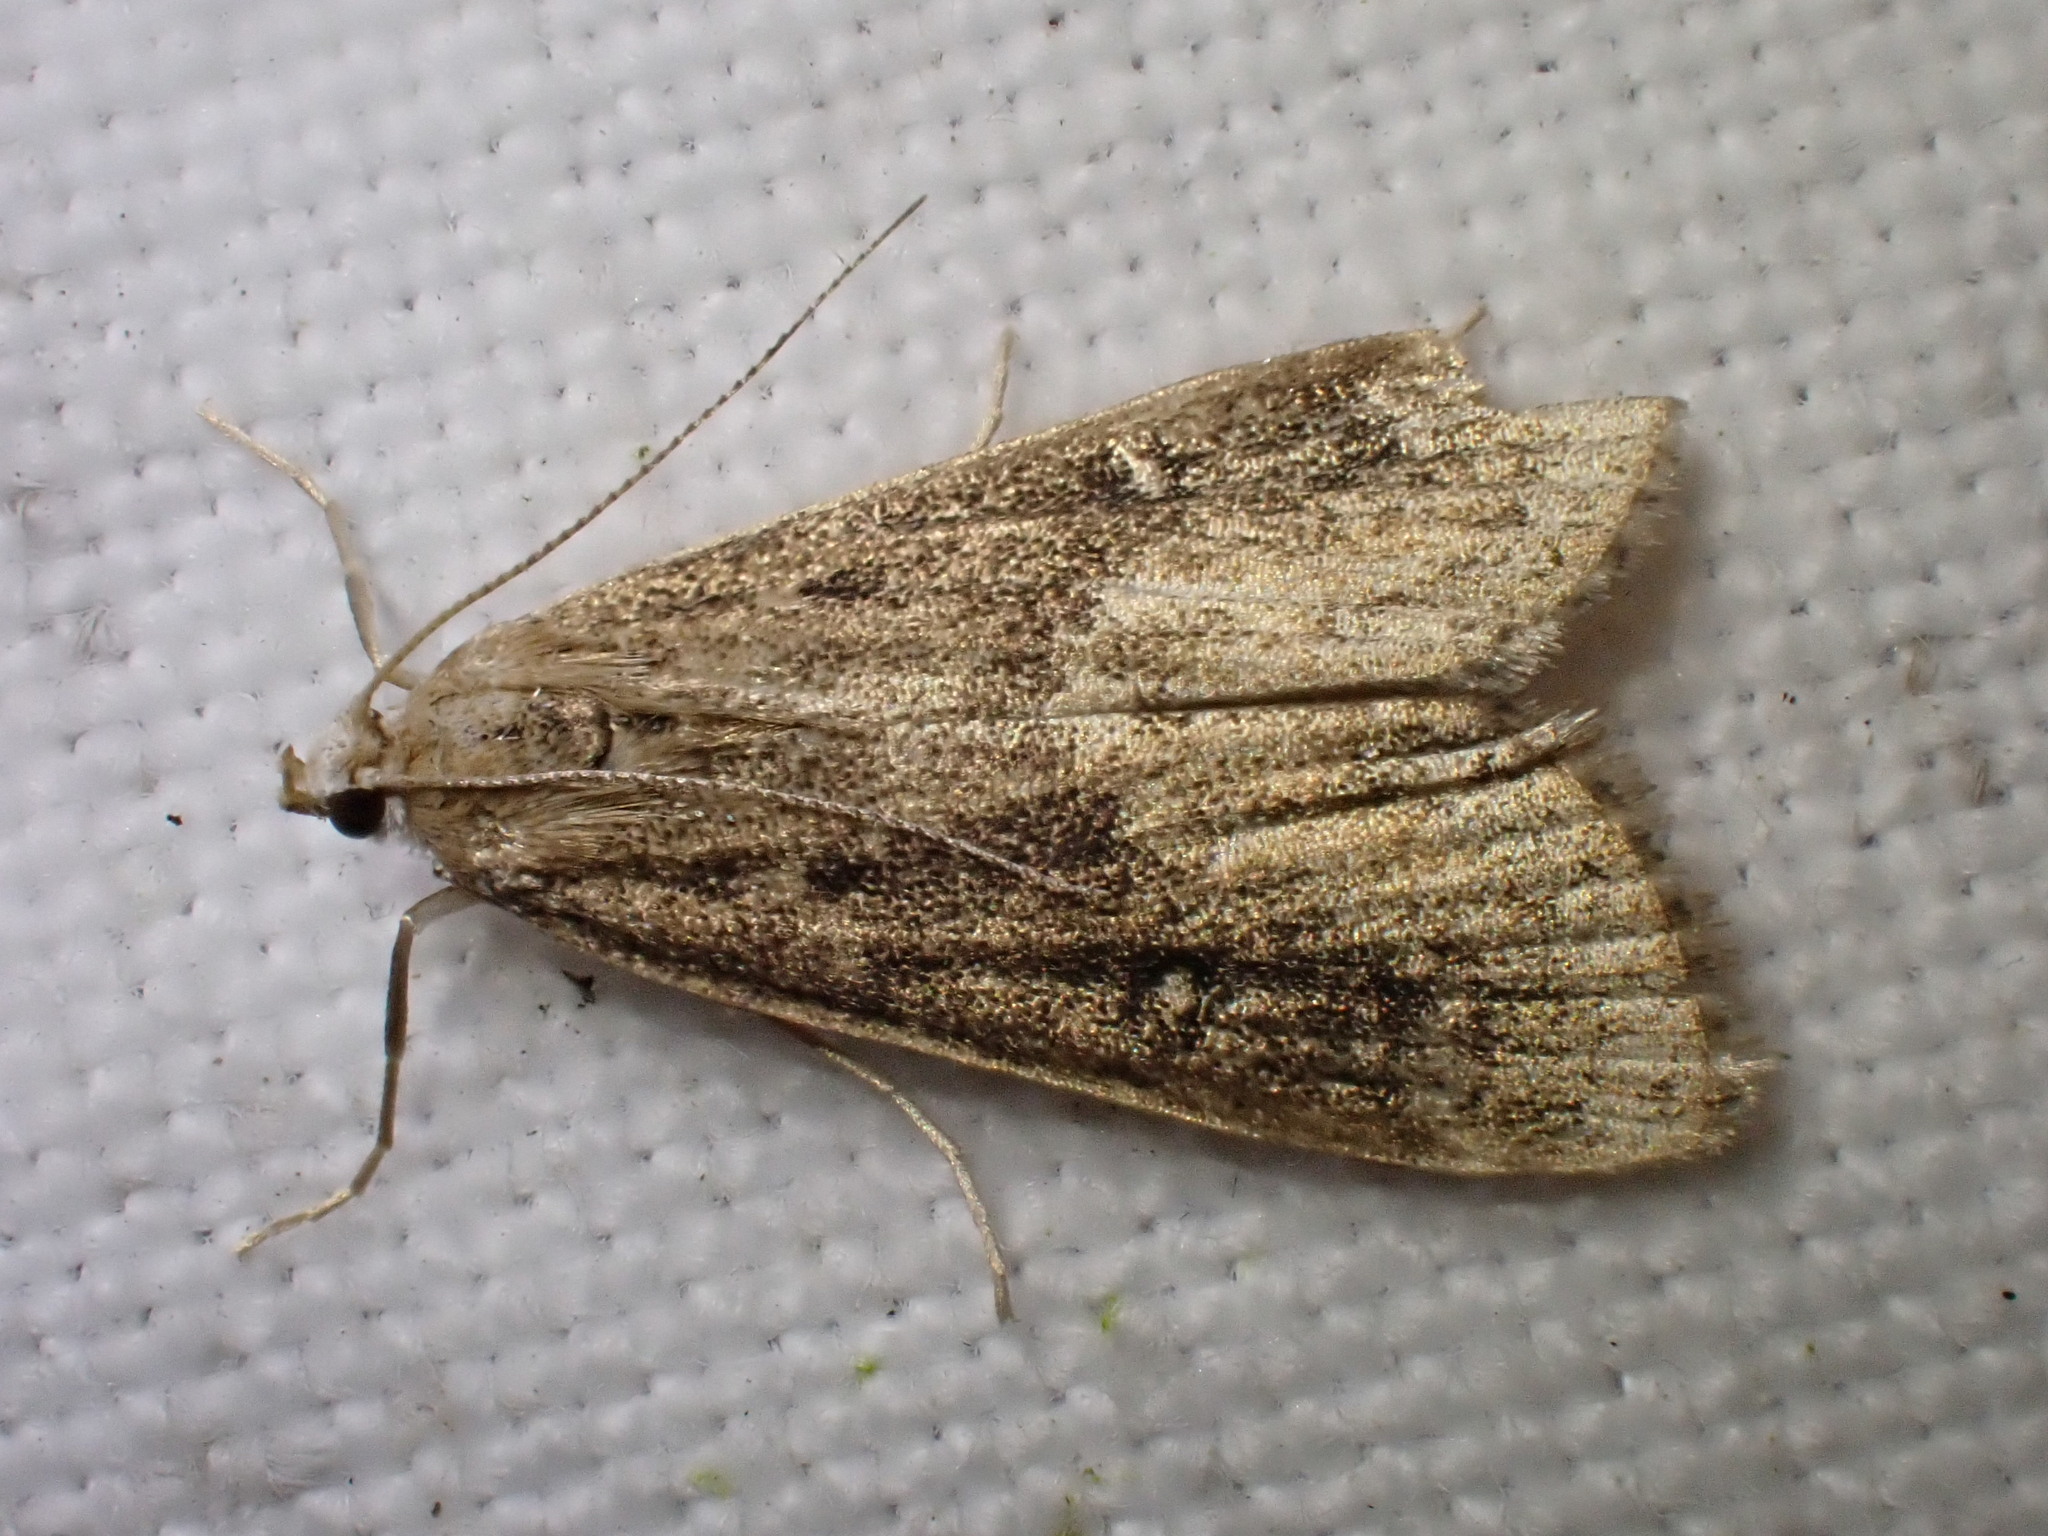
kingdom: Animalia
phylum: Arthropoda
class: Insecta
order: Lepidoptera
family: Crambidae
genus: Parapoynx
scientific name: Parapoynx stratiotata
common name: Ringed china-mark
